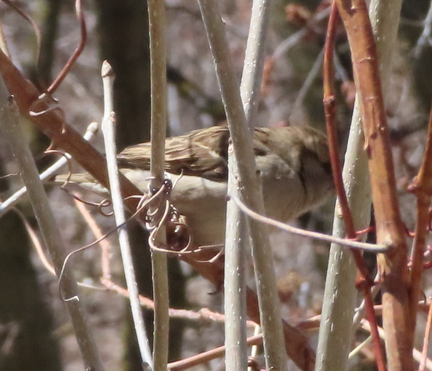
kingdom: Animalia
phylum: Chordata
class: Aves
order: Passeriformes
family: Passeridae
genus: Passer
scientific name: Passer domesticus
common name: House sparrow
